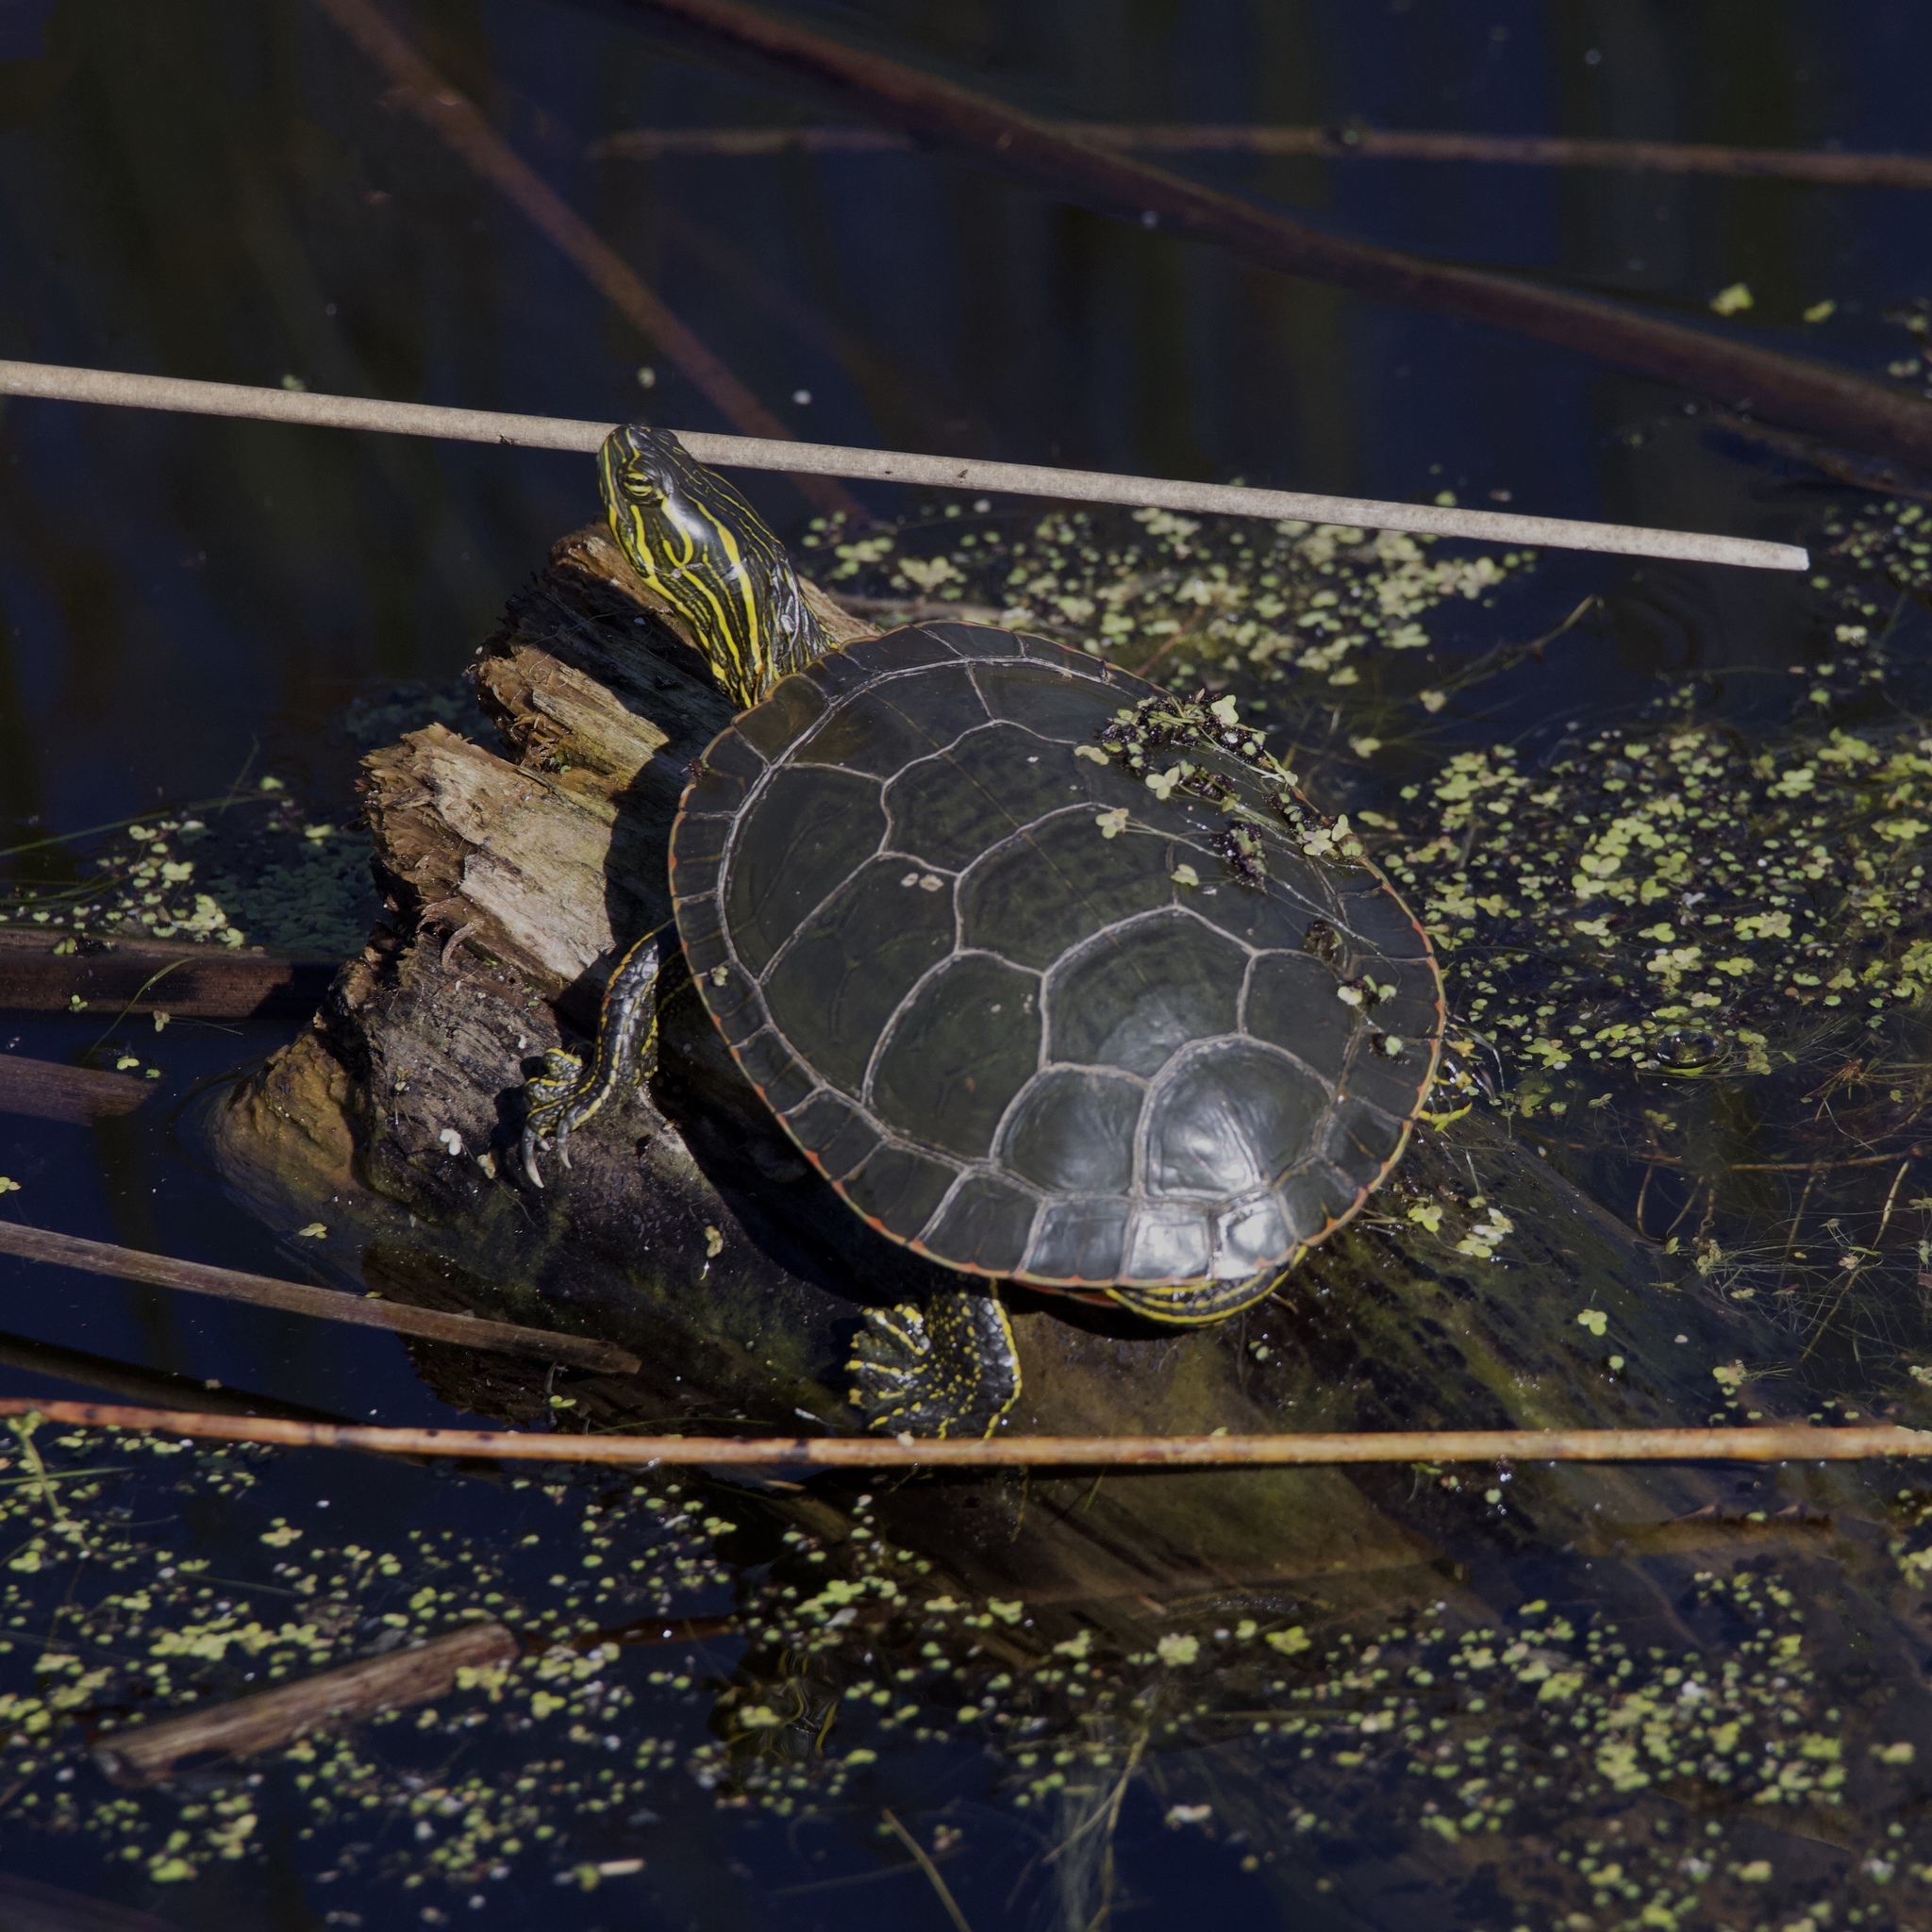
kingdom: Animalia
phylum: Chordata
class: Testudines
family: Emydidae
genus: Chrysemys
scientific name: Chrysemys picta
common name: Painted turtle
